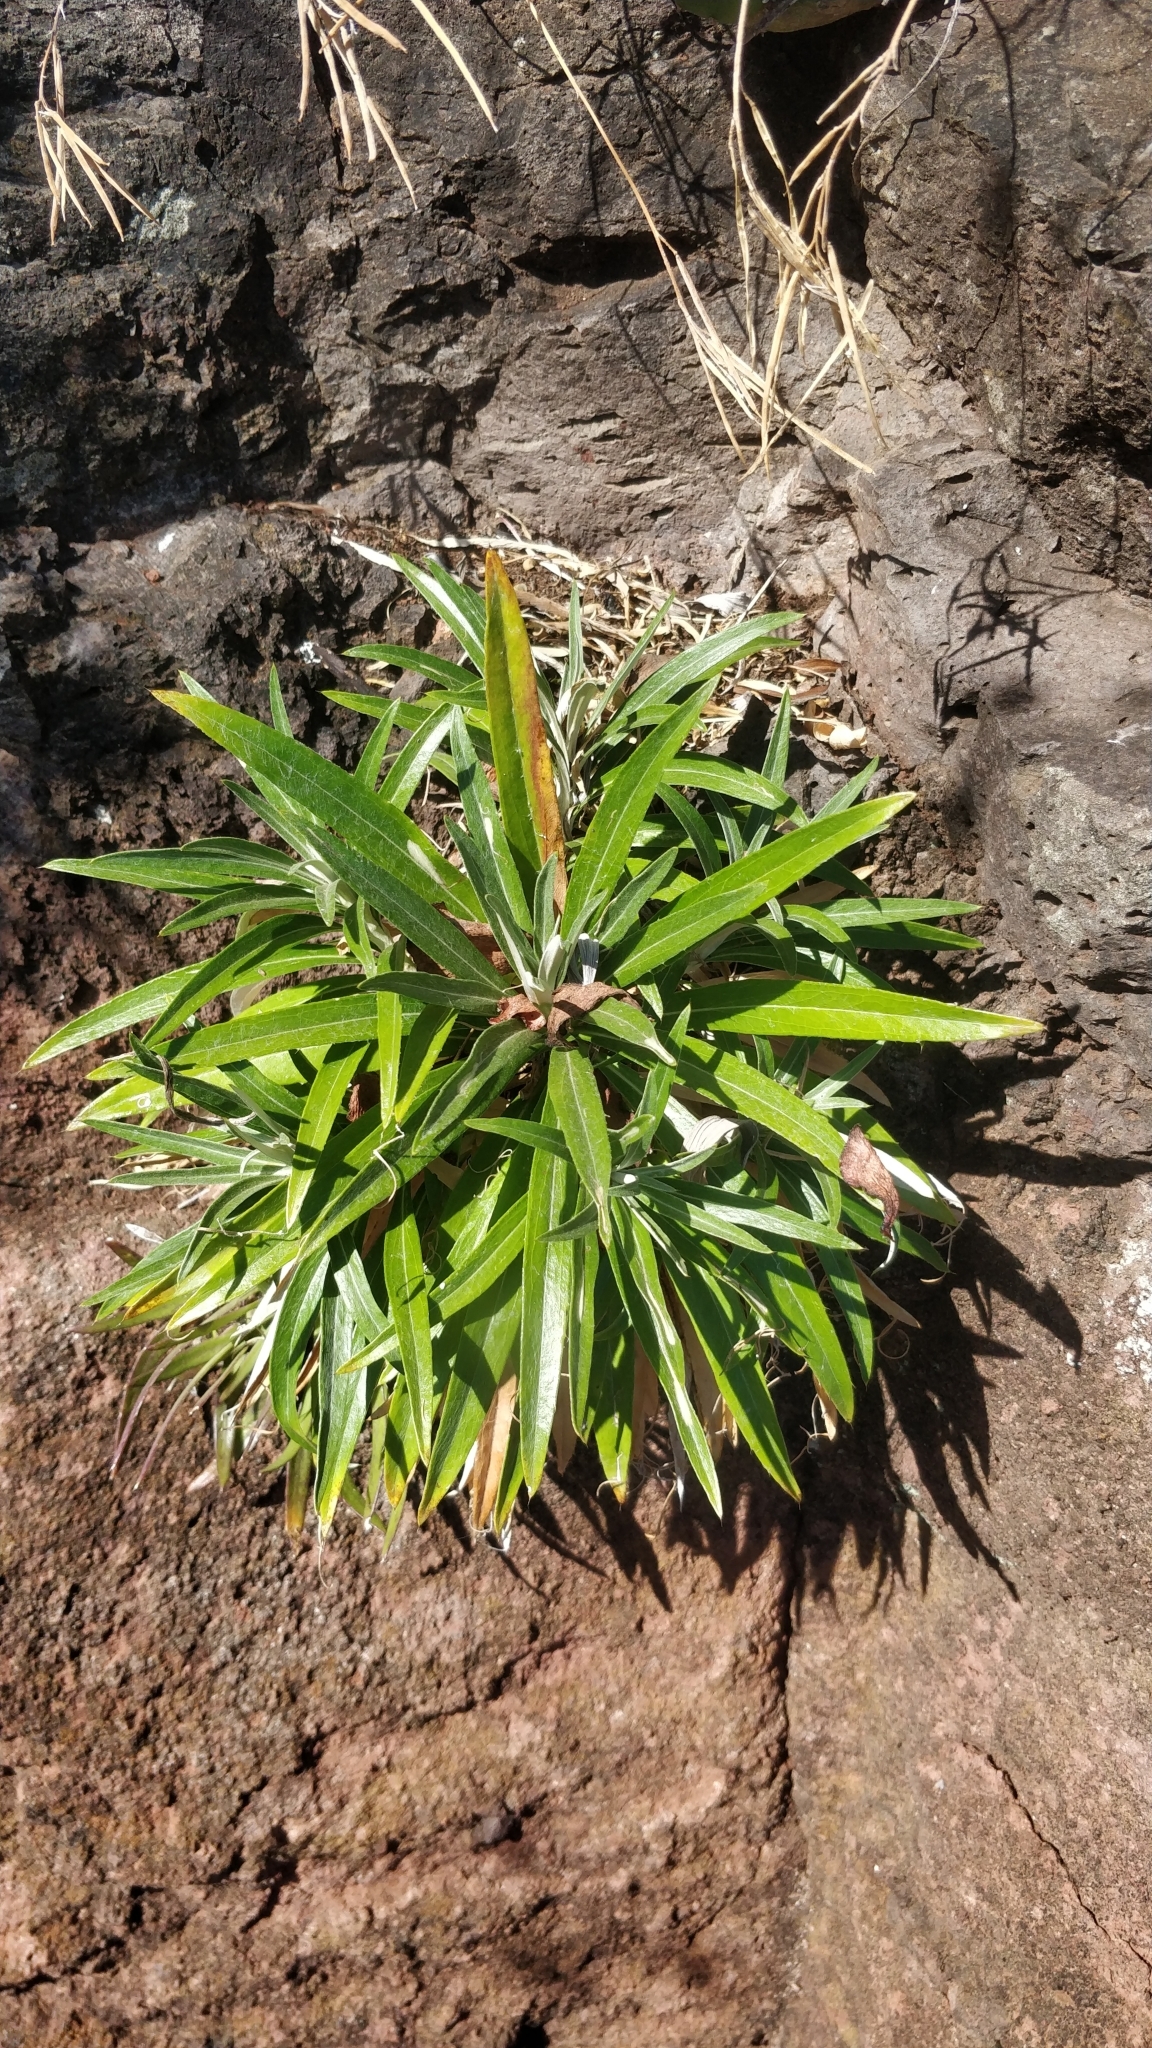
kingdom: Plantae
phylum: Tracheophyta
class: Magnoliopsida
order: Asterales
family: Asteraceae
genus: Carlina
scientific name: Carlina salicifolia
